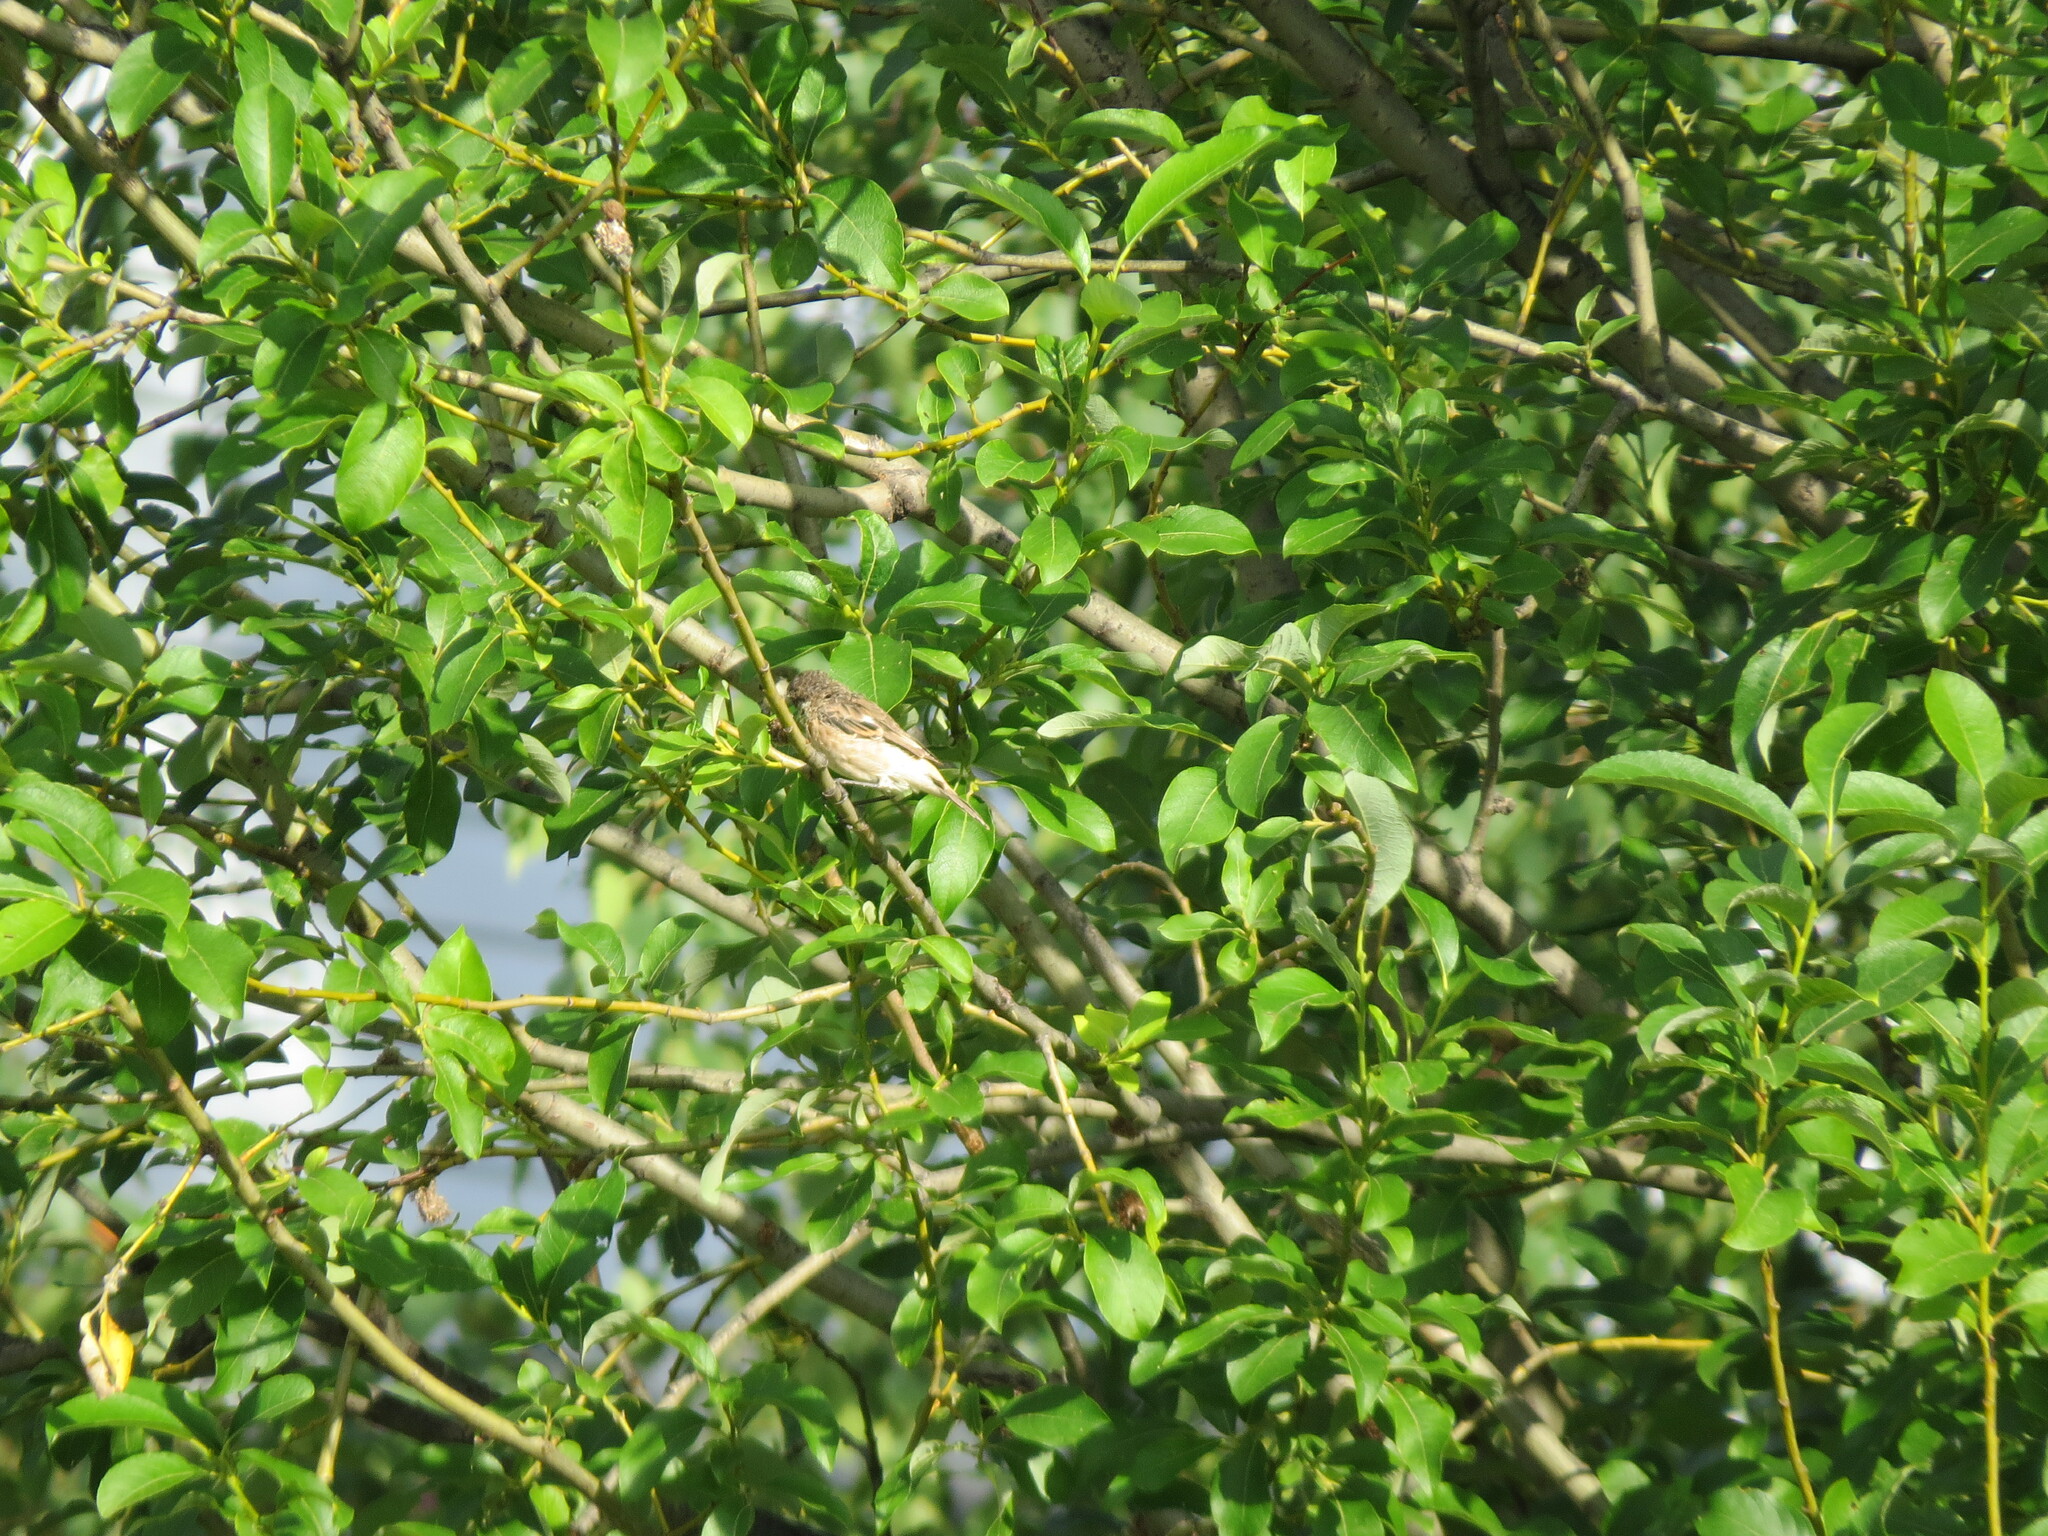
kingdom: Animalia
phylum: Chordata
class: Aves
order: Passeriformes
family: Muscicapidae
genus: Saxicola
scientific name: Saxicola maurus
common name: Siberian stonechat
